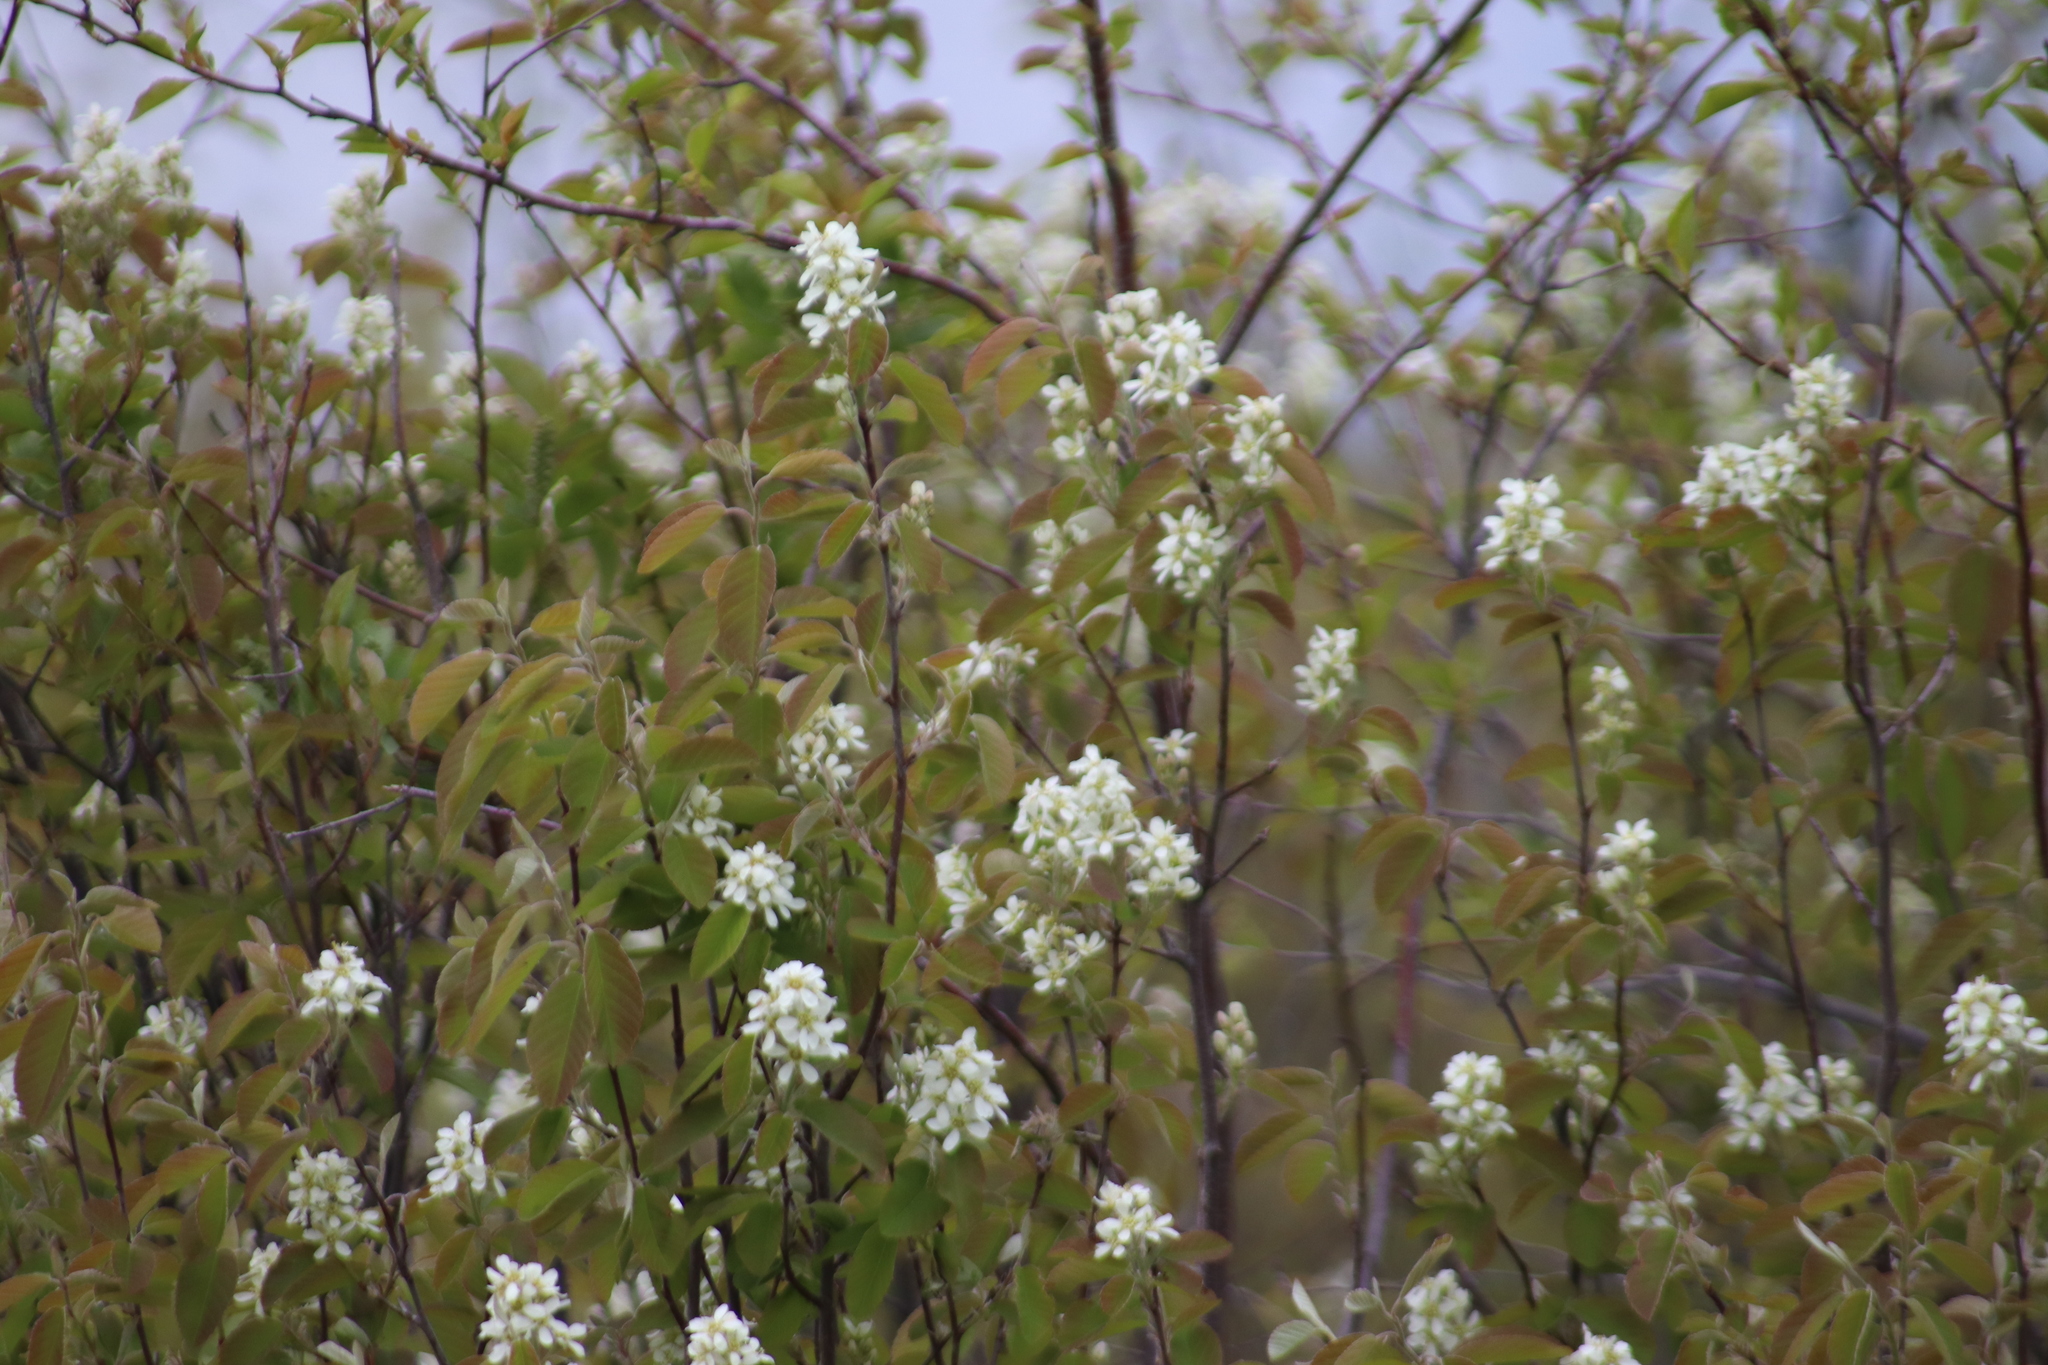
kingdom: Plantae
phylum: Tracheophyta
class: Magnoliopsida
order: Rosales
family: Rosaceae
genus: Amelanchier
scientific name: Amelanchier alnifolia
